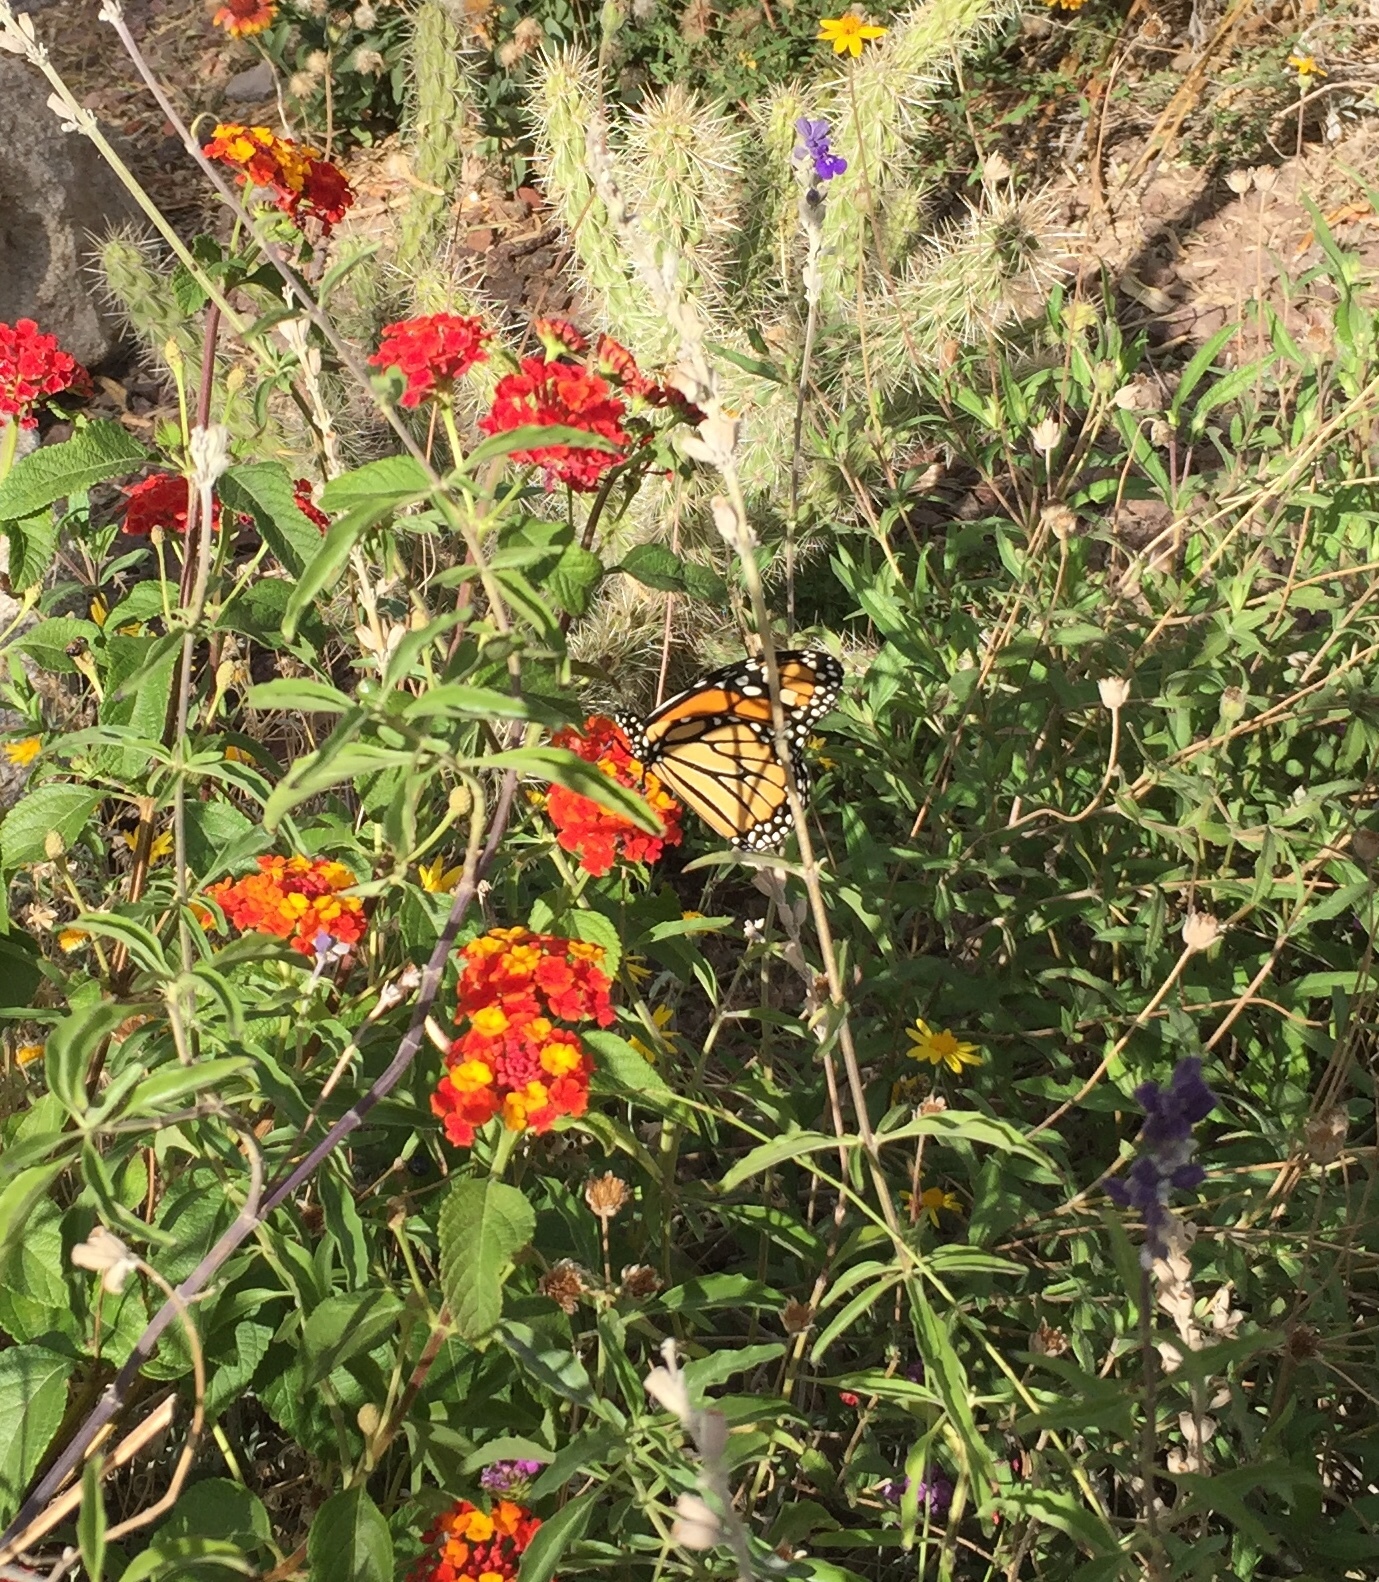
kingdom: Animalia
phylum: Arthropoda
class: Insecta
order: Lepidoptera
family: Nymphalidae
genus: Danaus
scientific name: Danaus plexippus
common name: Monarch
